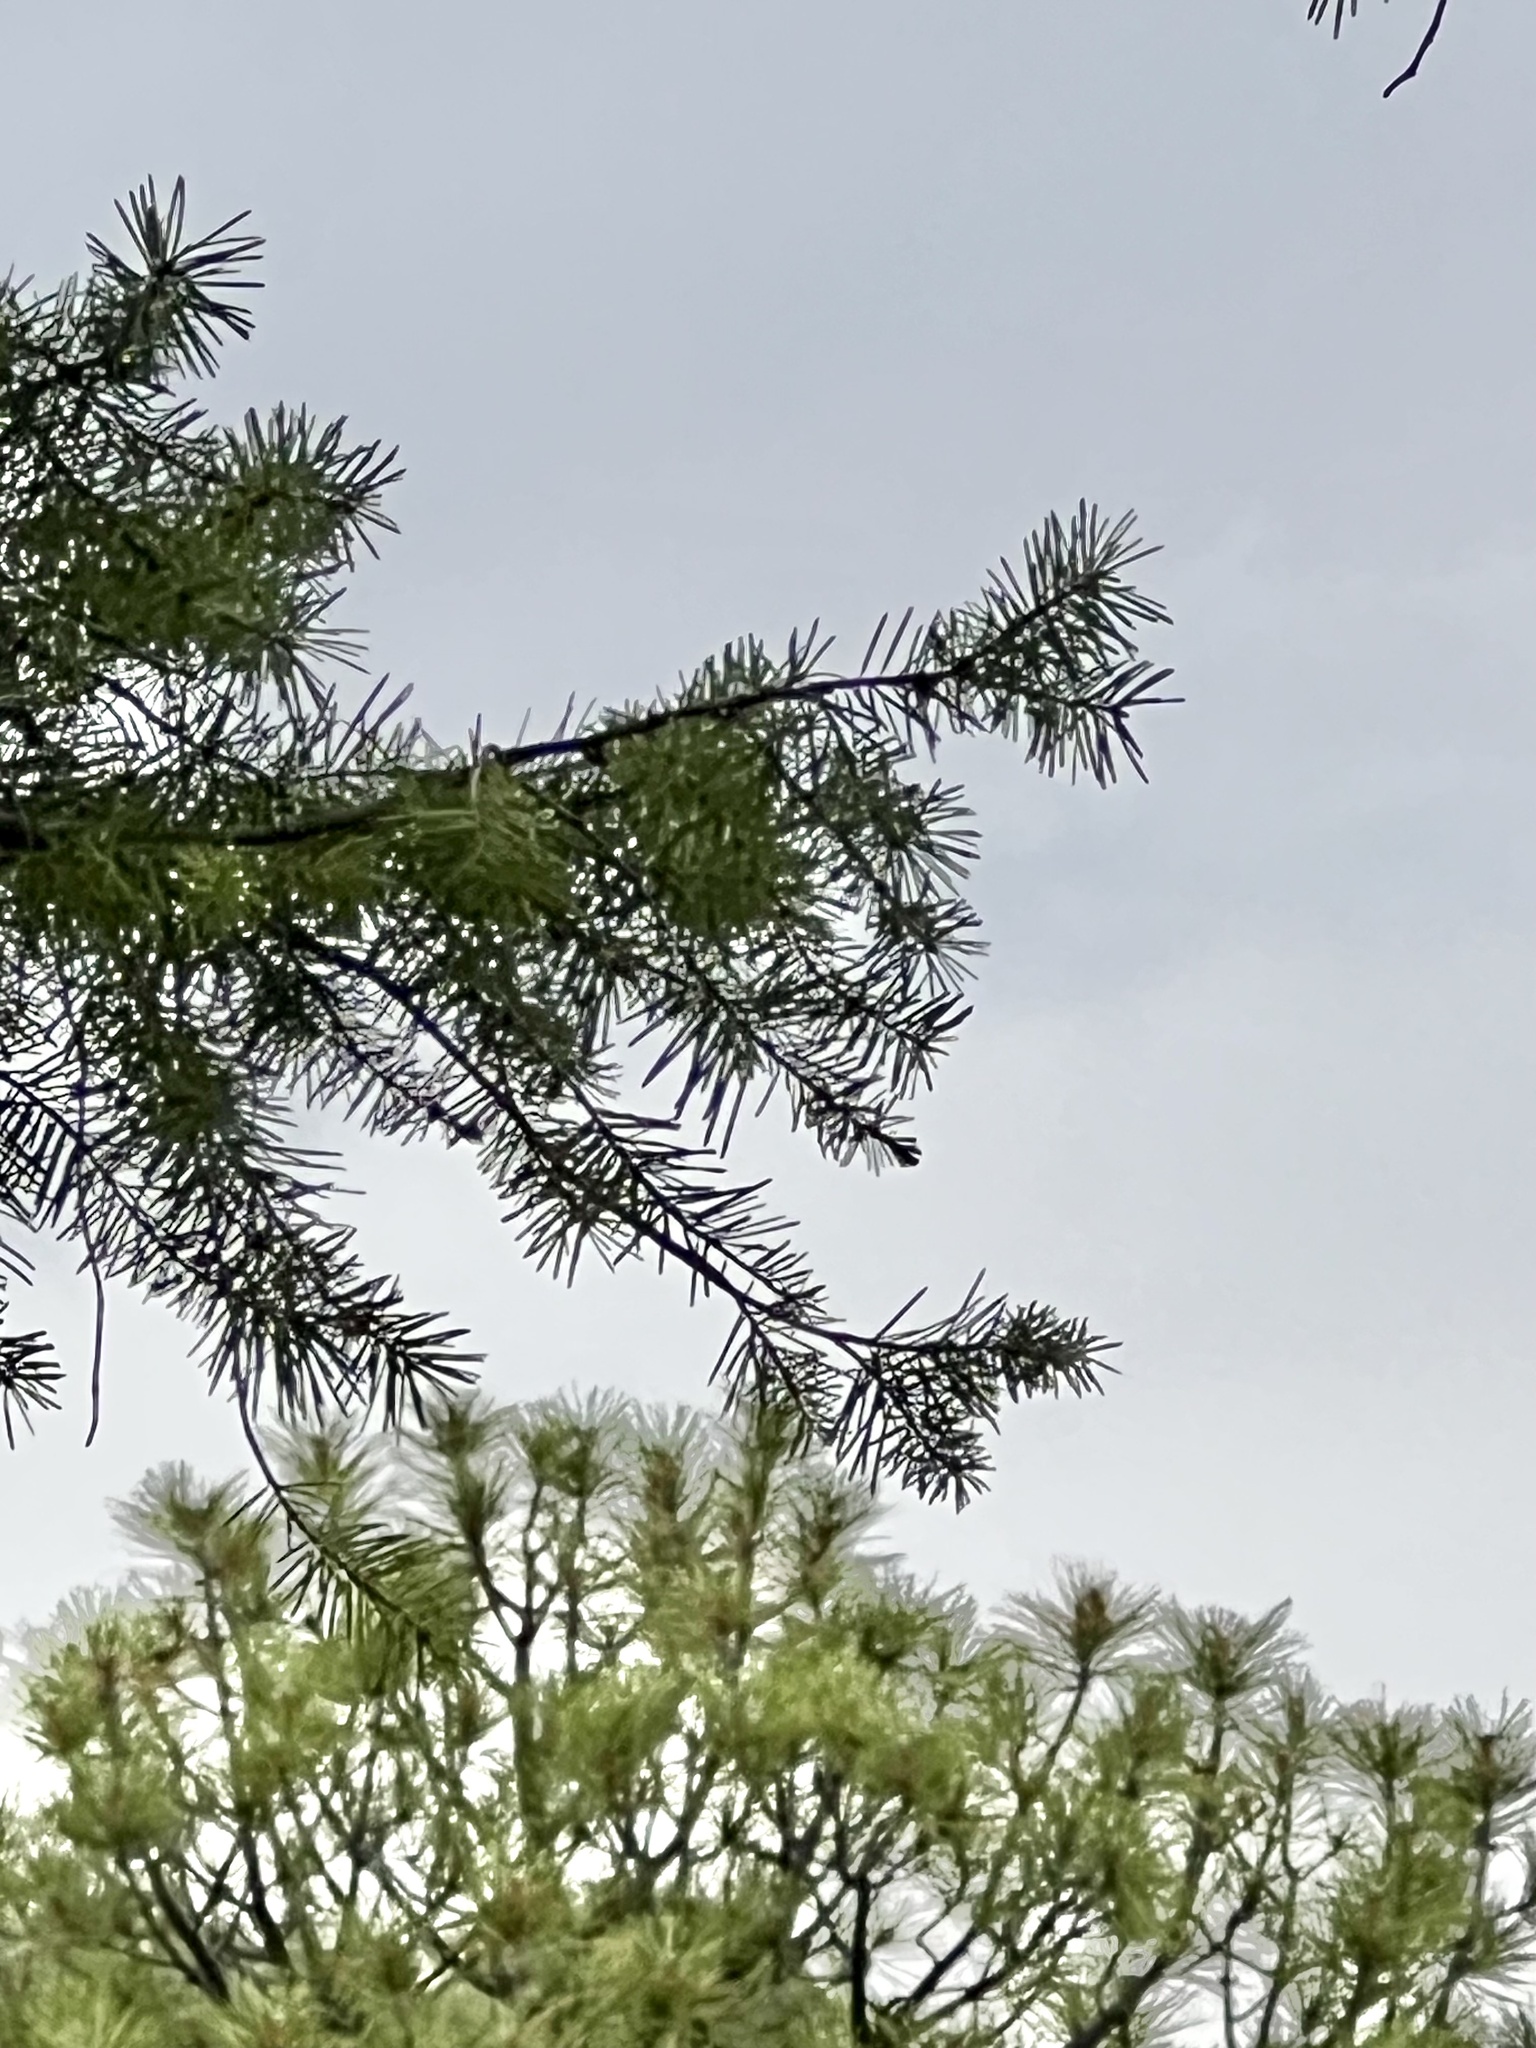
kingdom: Plantae
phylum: Tracheophyta
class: Pinopsida
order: Pinales
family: Pinaceae
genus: Pseudotsuga
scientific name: Pseudotsuga menziesii
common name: Douglas fir
